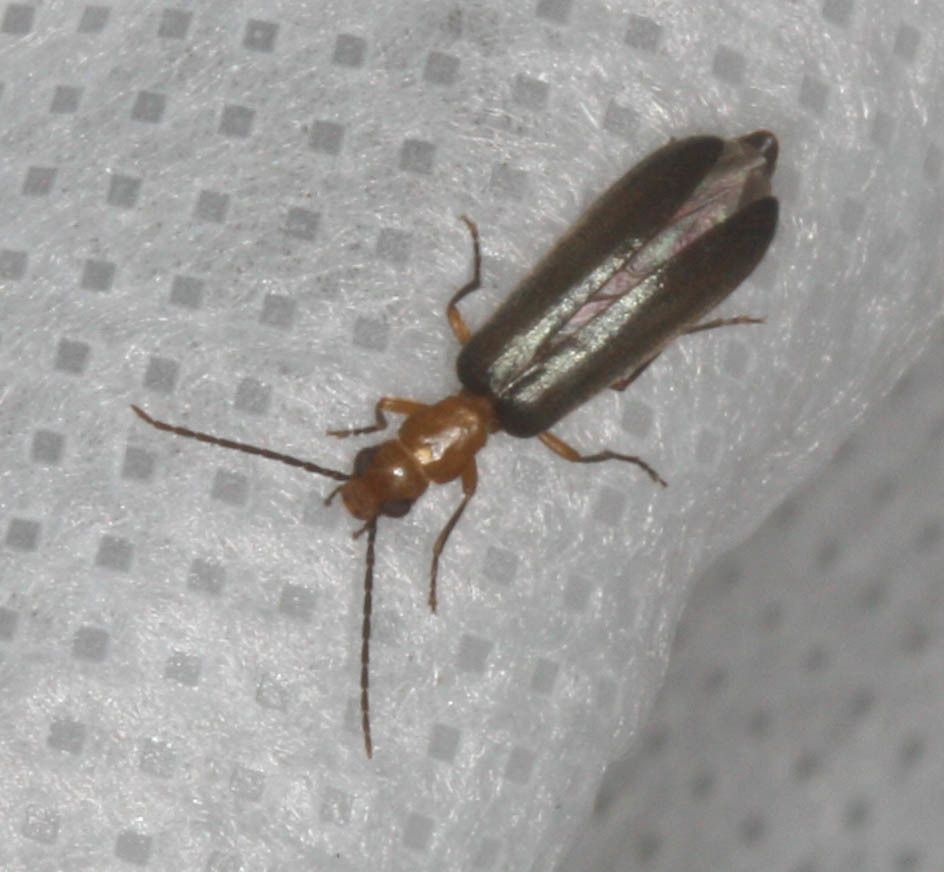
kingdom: Animalia
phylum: Arthropoda
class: Insecta
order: Coleoptera
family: Oedemeridae
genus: Xanthochroina
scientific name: Xanthochroina bicolor
